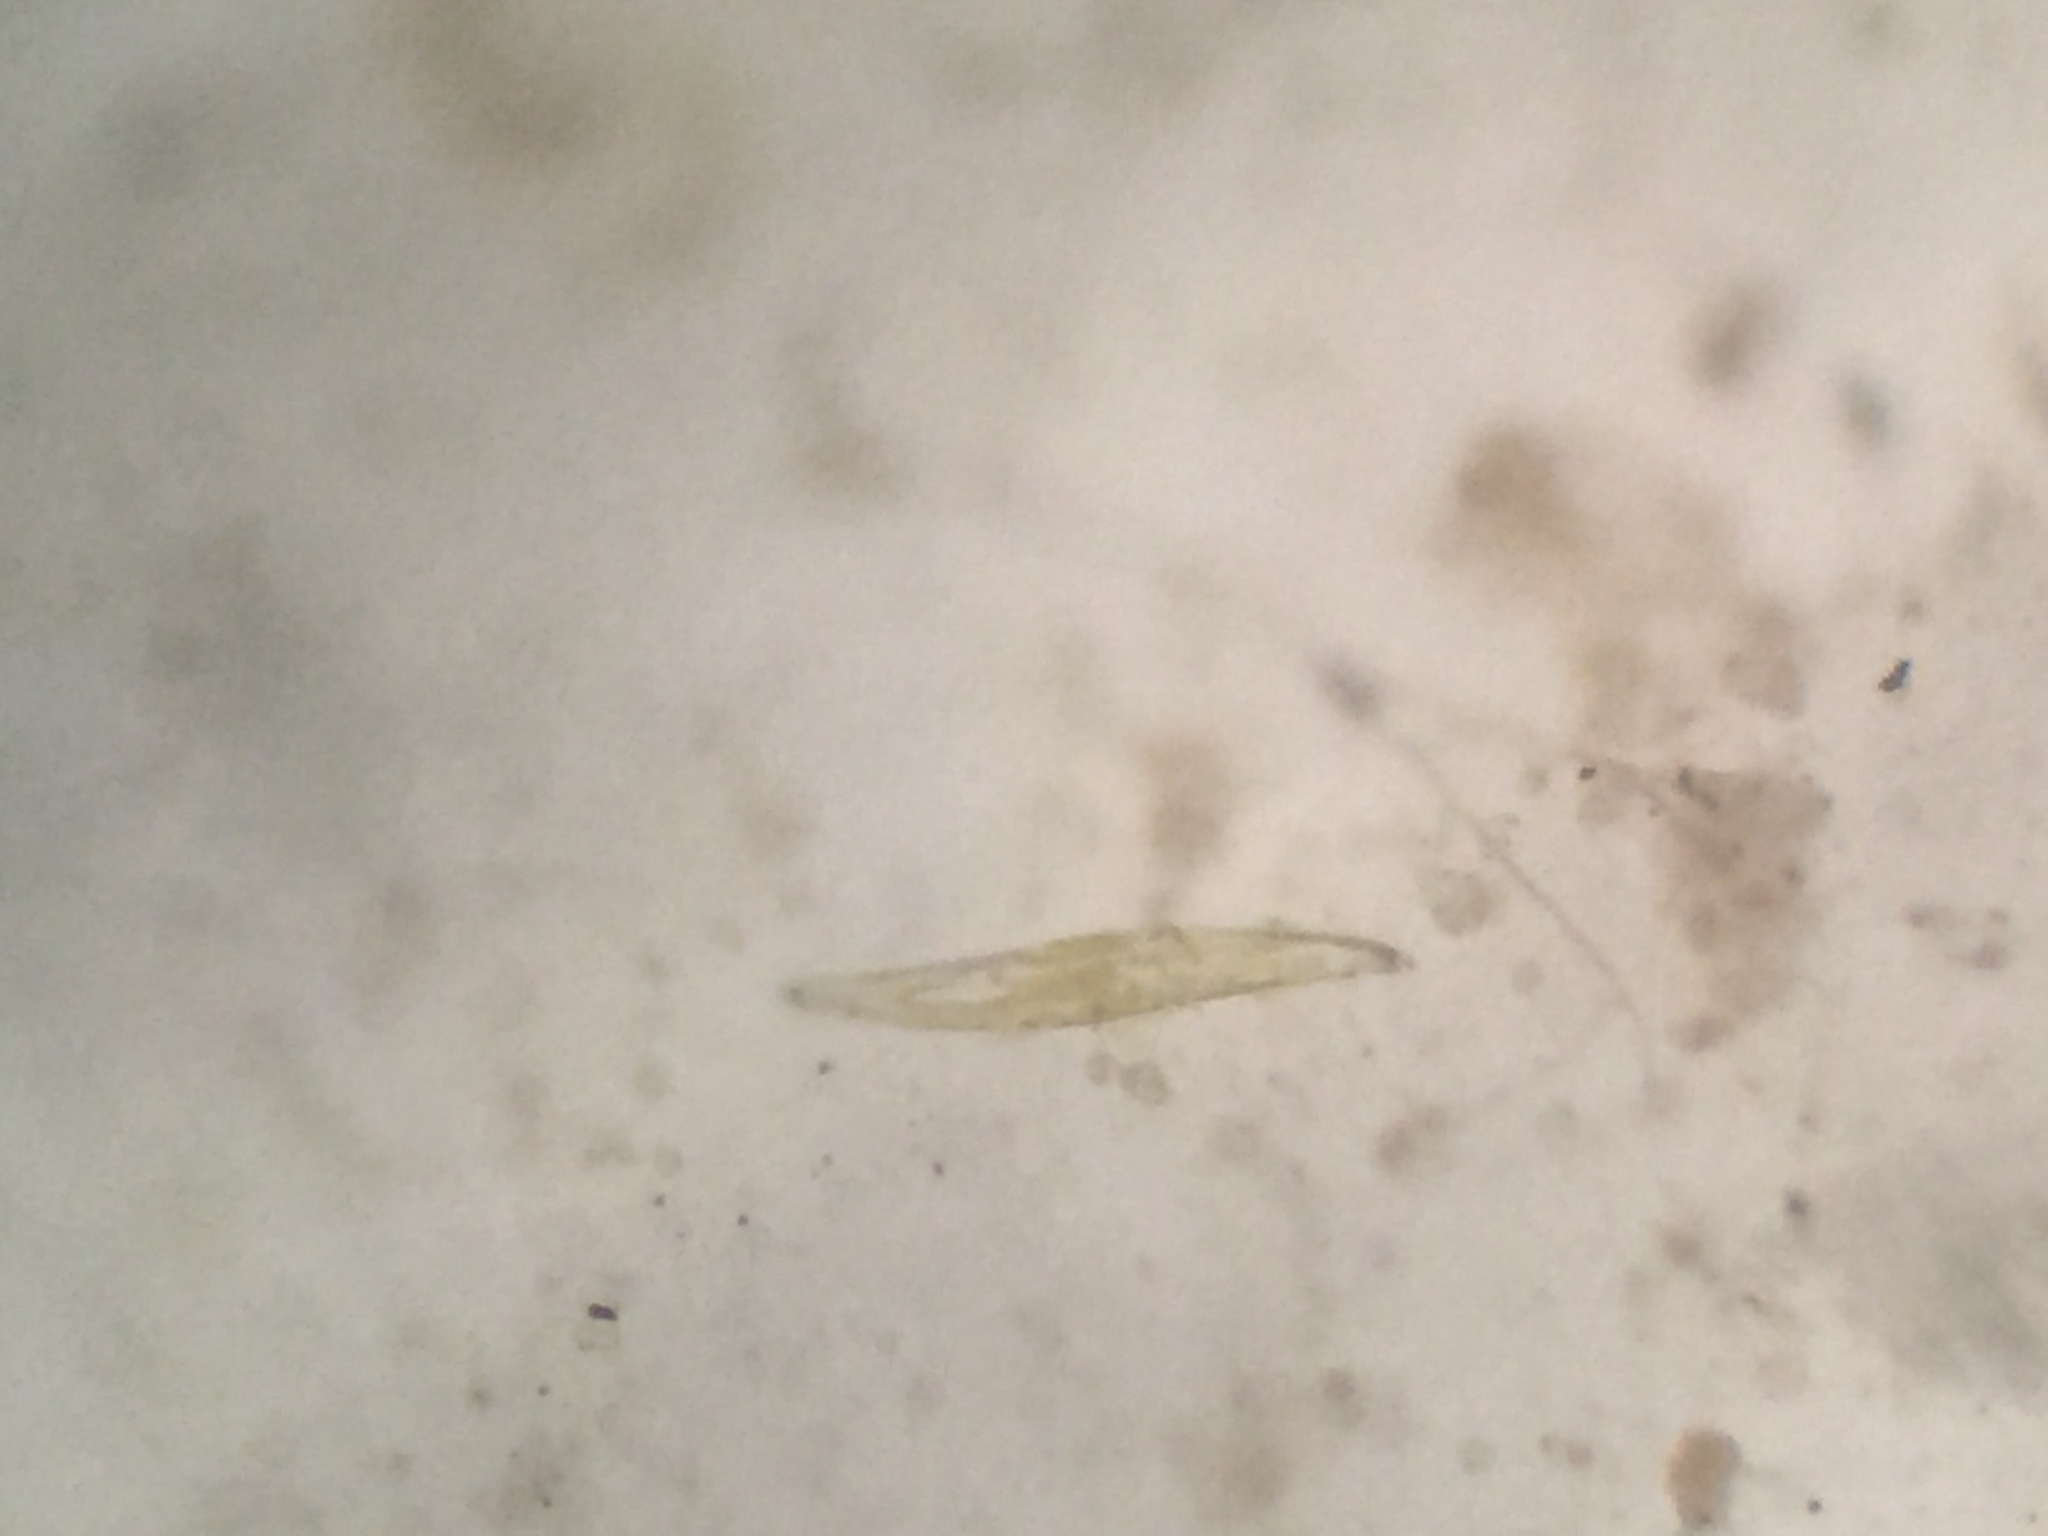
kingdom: Chromista
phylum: Ochrophyta
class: Bacillariophyceae
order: Naviculales
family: Pleurosigmataceae
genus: Pleurosigma
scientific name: Pleurosigma
